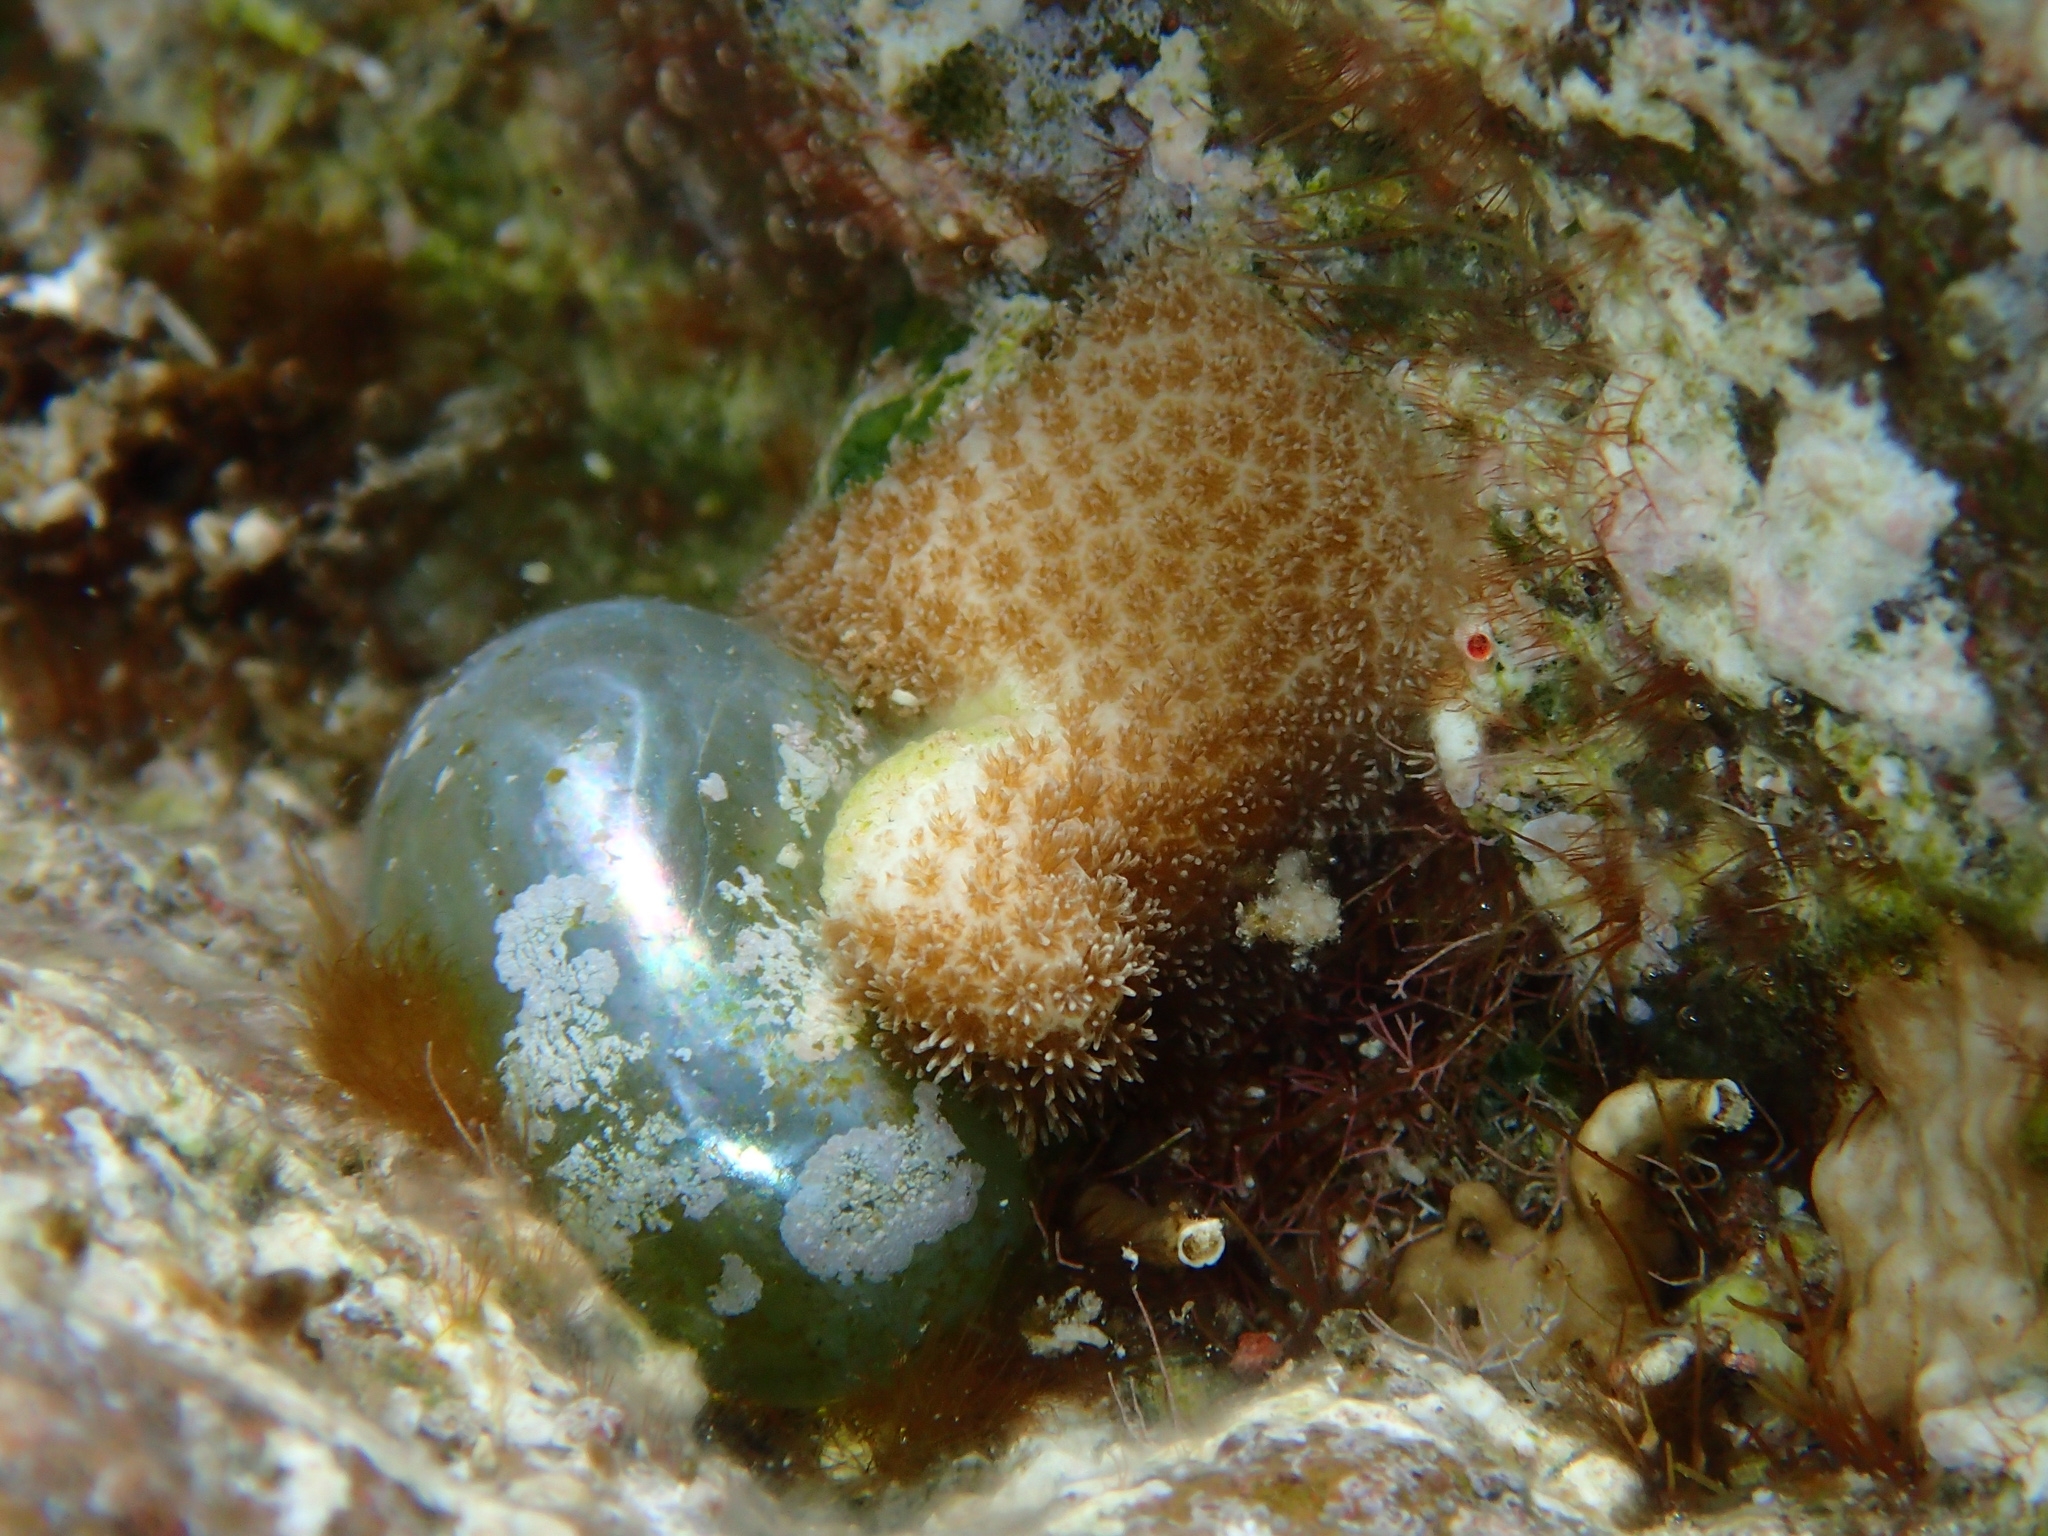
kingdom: Plantae
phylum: Chlorophyta
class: Ulvophyceae
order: Siphonocladales
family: Valoniaceae
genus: Valonia
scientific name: Valonia ventricosa
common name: Sea pearl
